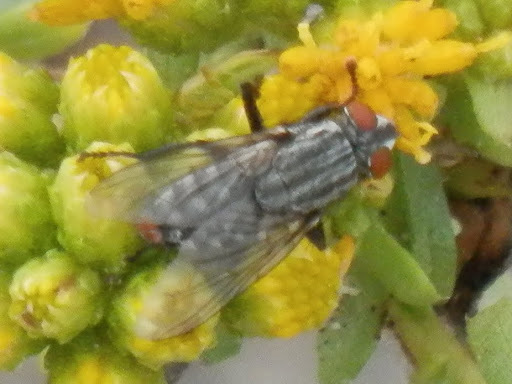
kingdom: Animalia
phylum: Arthropoda
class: Insecta
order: Diptera
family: Sarcophagidae
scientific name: Sarcophagidae
